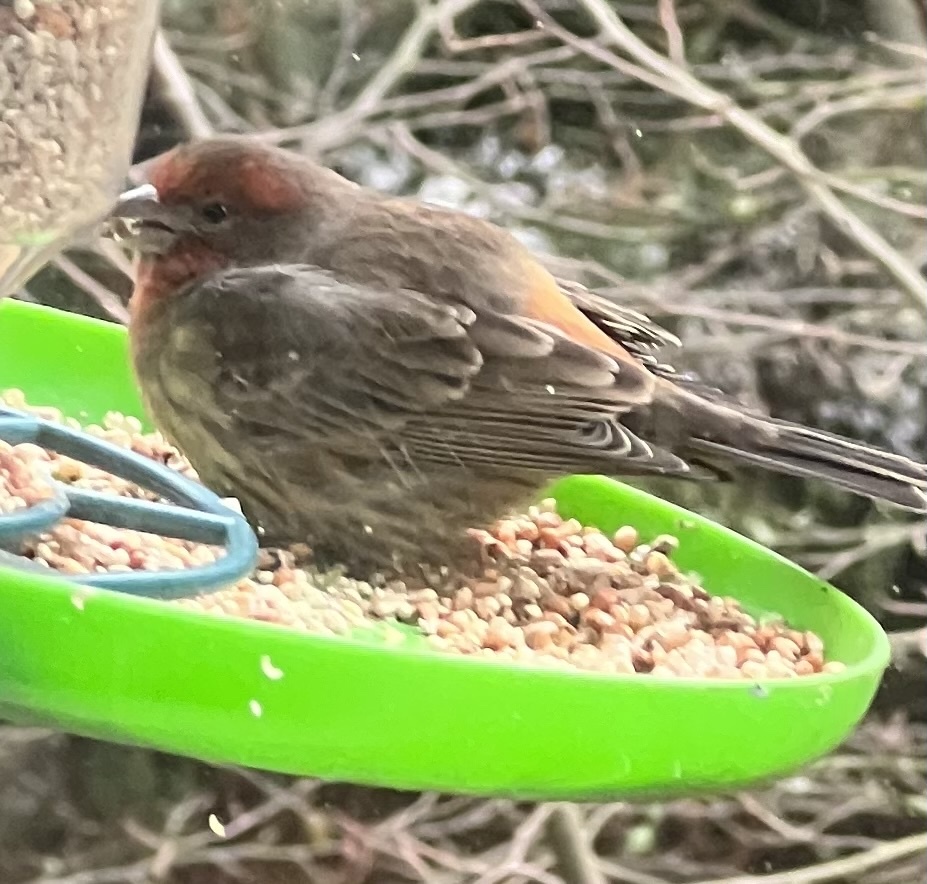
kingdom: Animalia
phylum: Chordata
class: Aves
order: Passeriformes
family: Fringillidae
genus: Haemorhous
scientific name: Haemorhous mexicanus
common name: House finch
